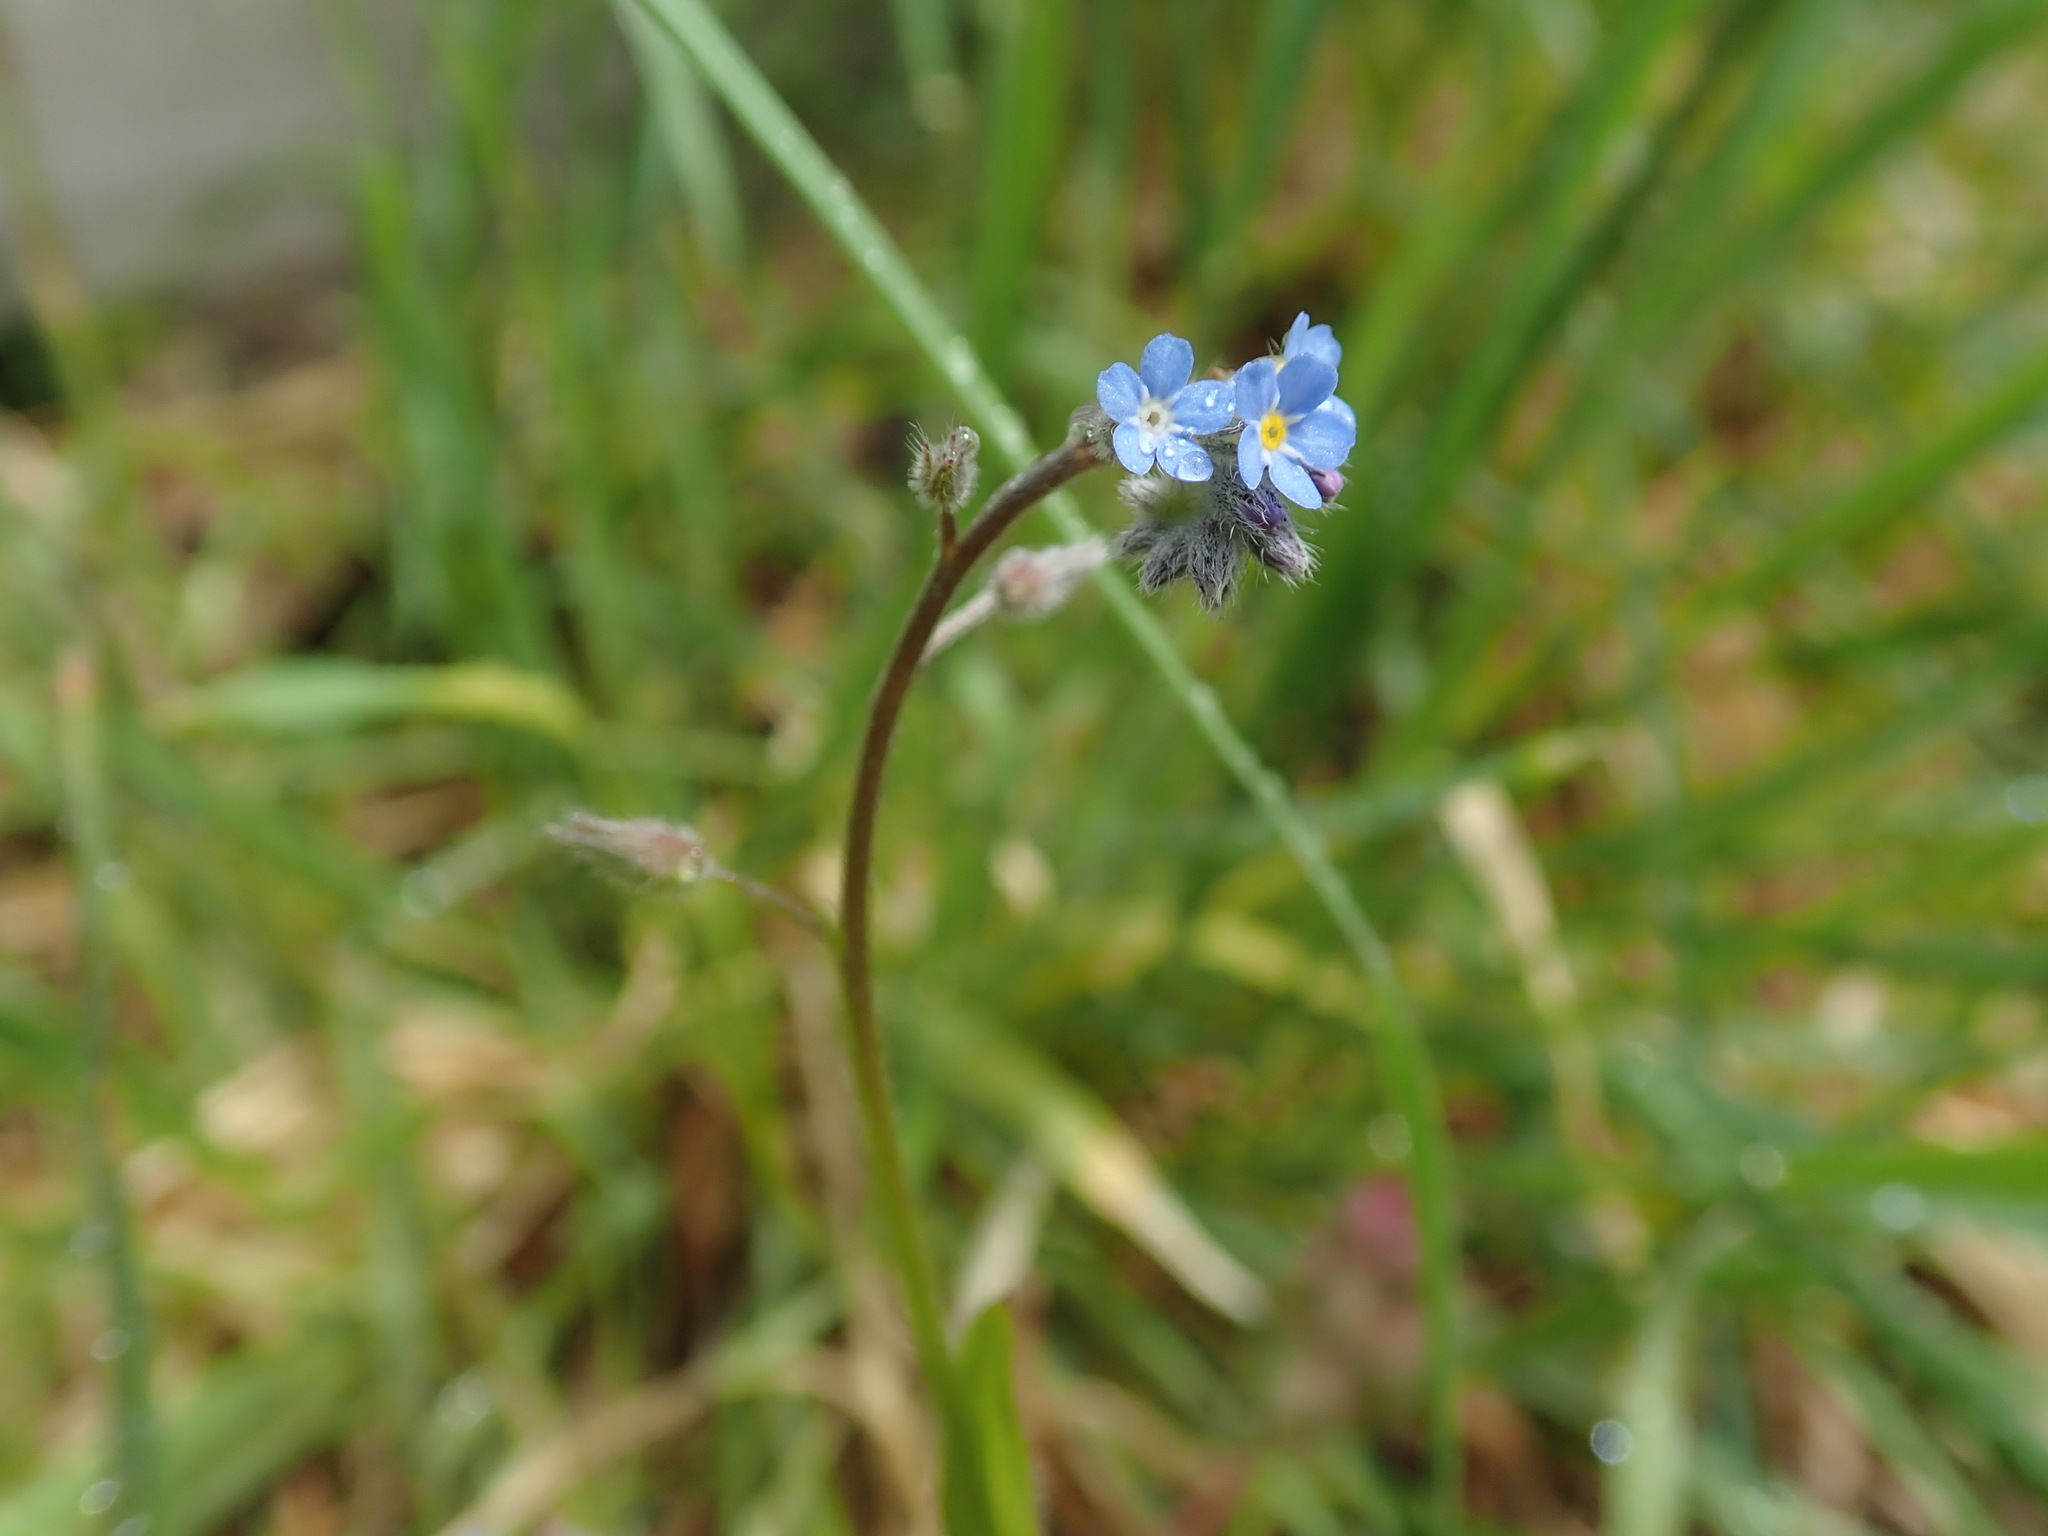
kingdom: Plantae
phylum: Tracheophyta
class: Magnoliopsida
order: Boraginales
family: Boraginaceae
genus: Myosotis
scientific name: Myosotis arvensis
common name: Field forget-me-not
